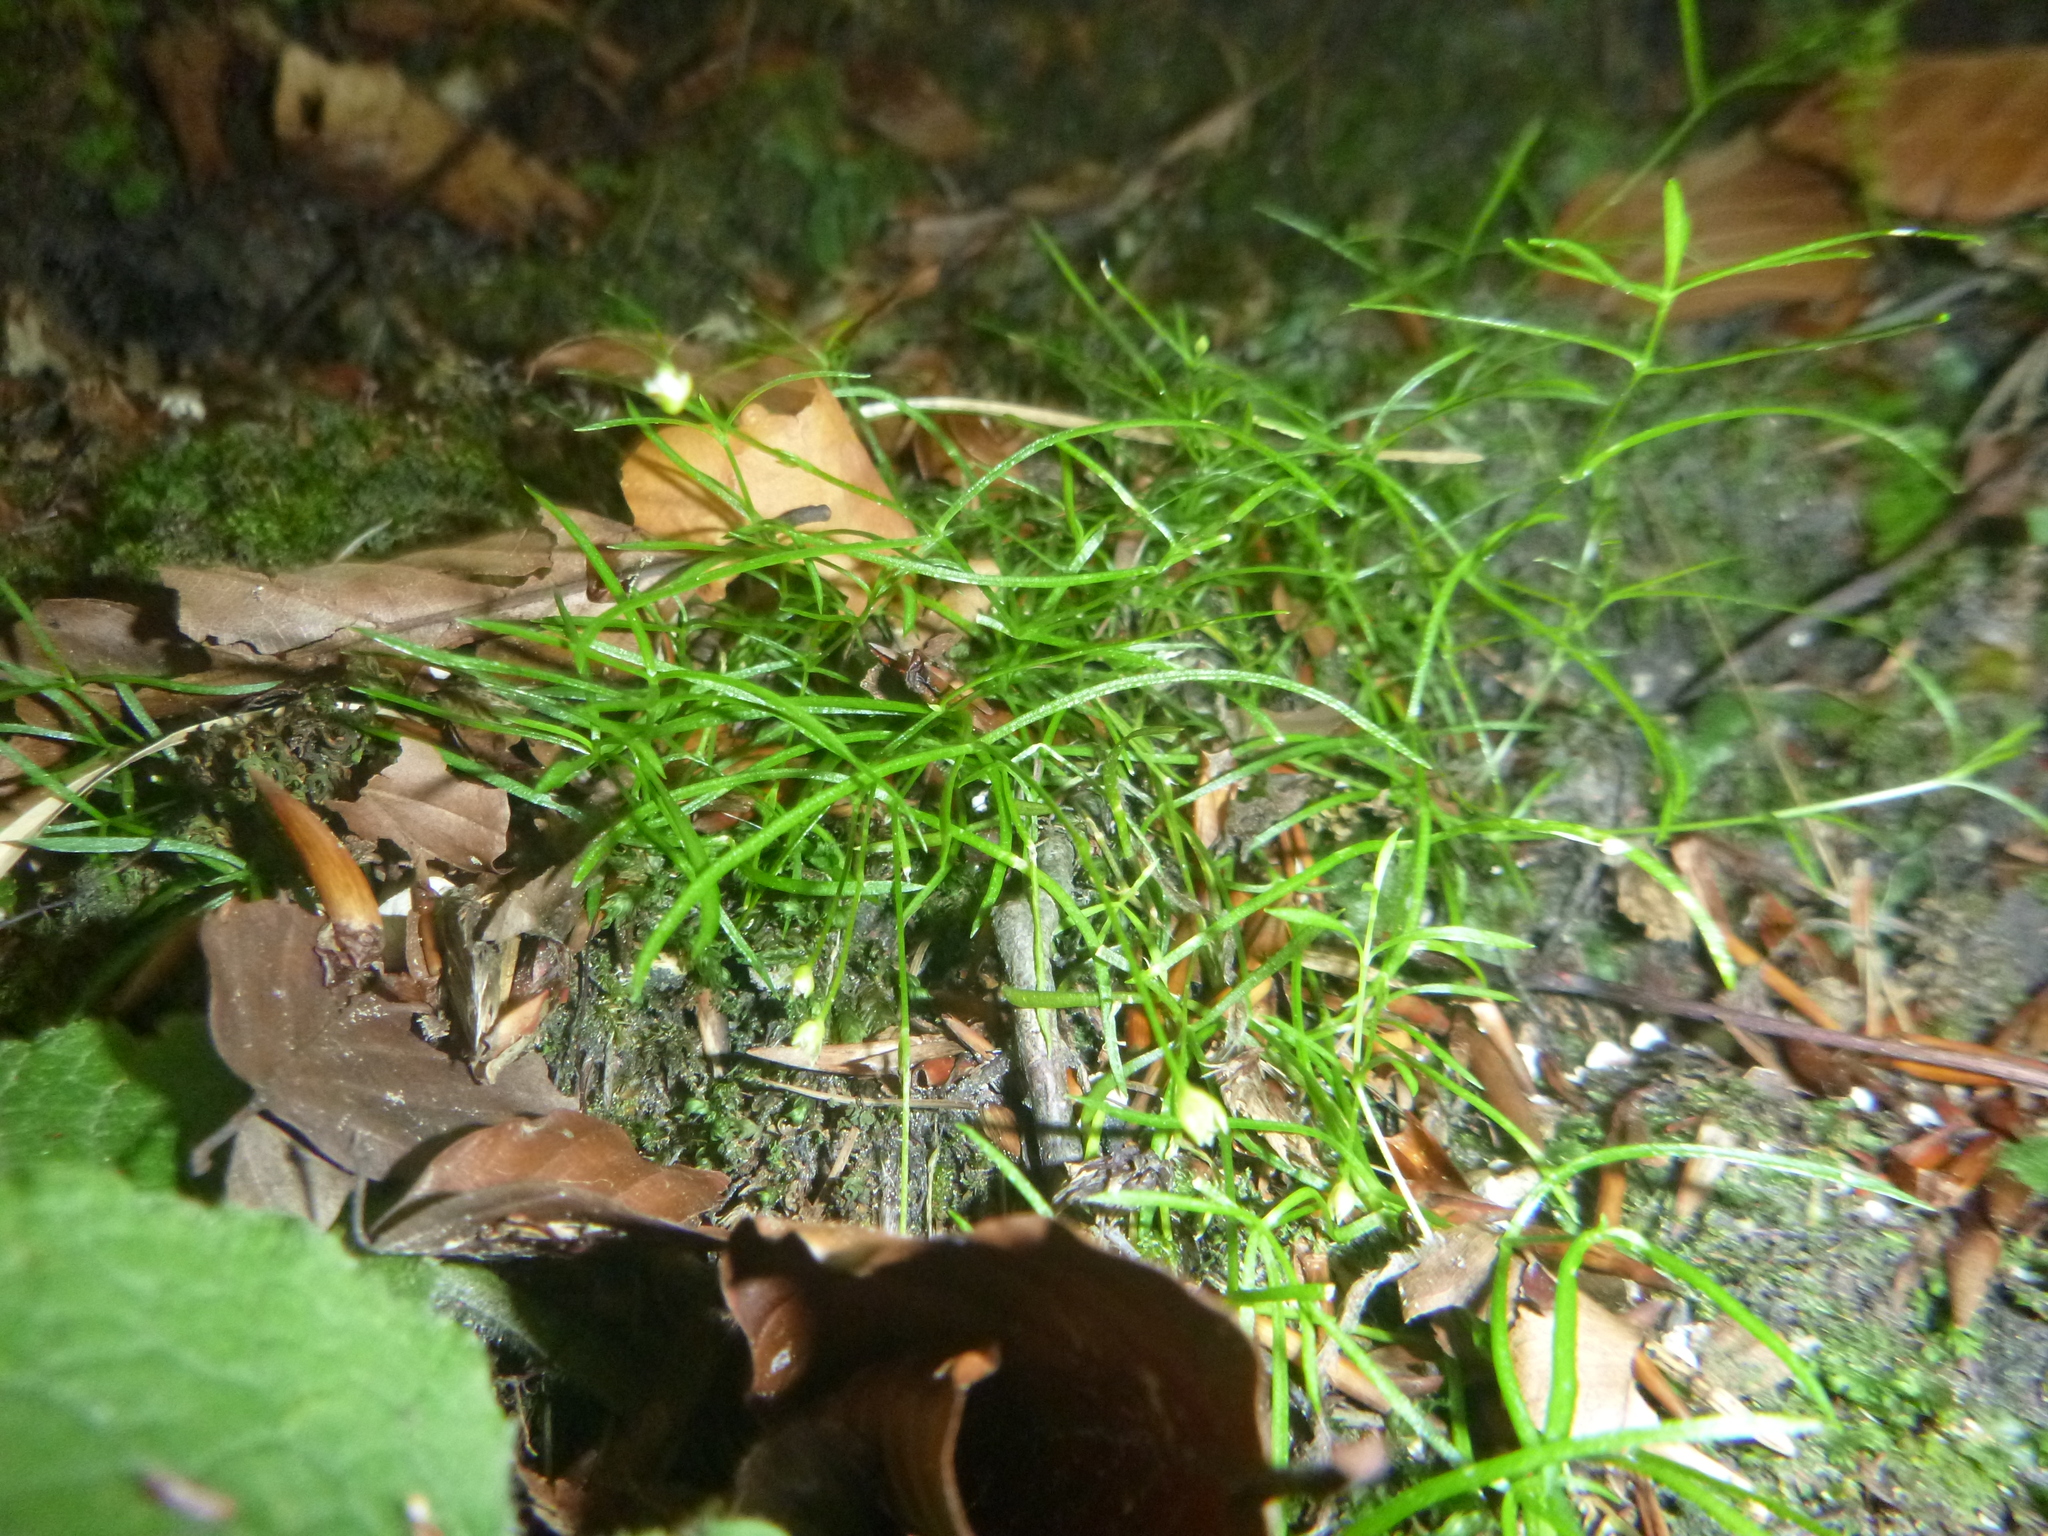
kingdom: Plantae
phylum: Tracheophyta
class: Magnoliopsida
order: Caryophyllales
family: Caryophyllaceae
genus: Moehringia
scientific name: Moehringia muscosa
